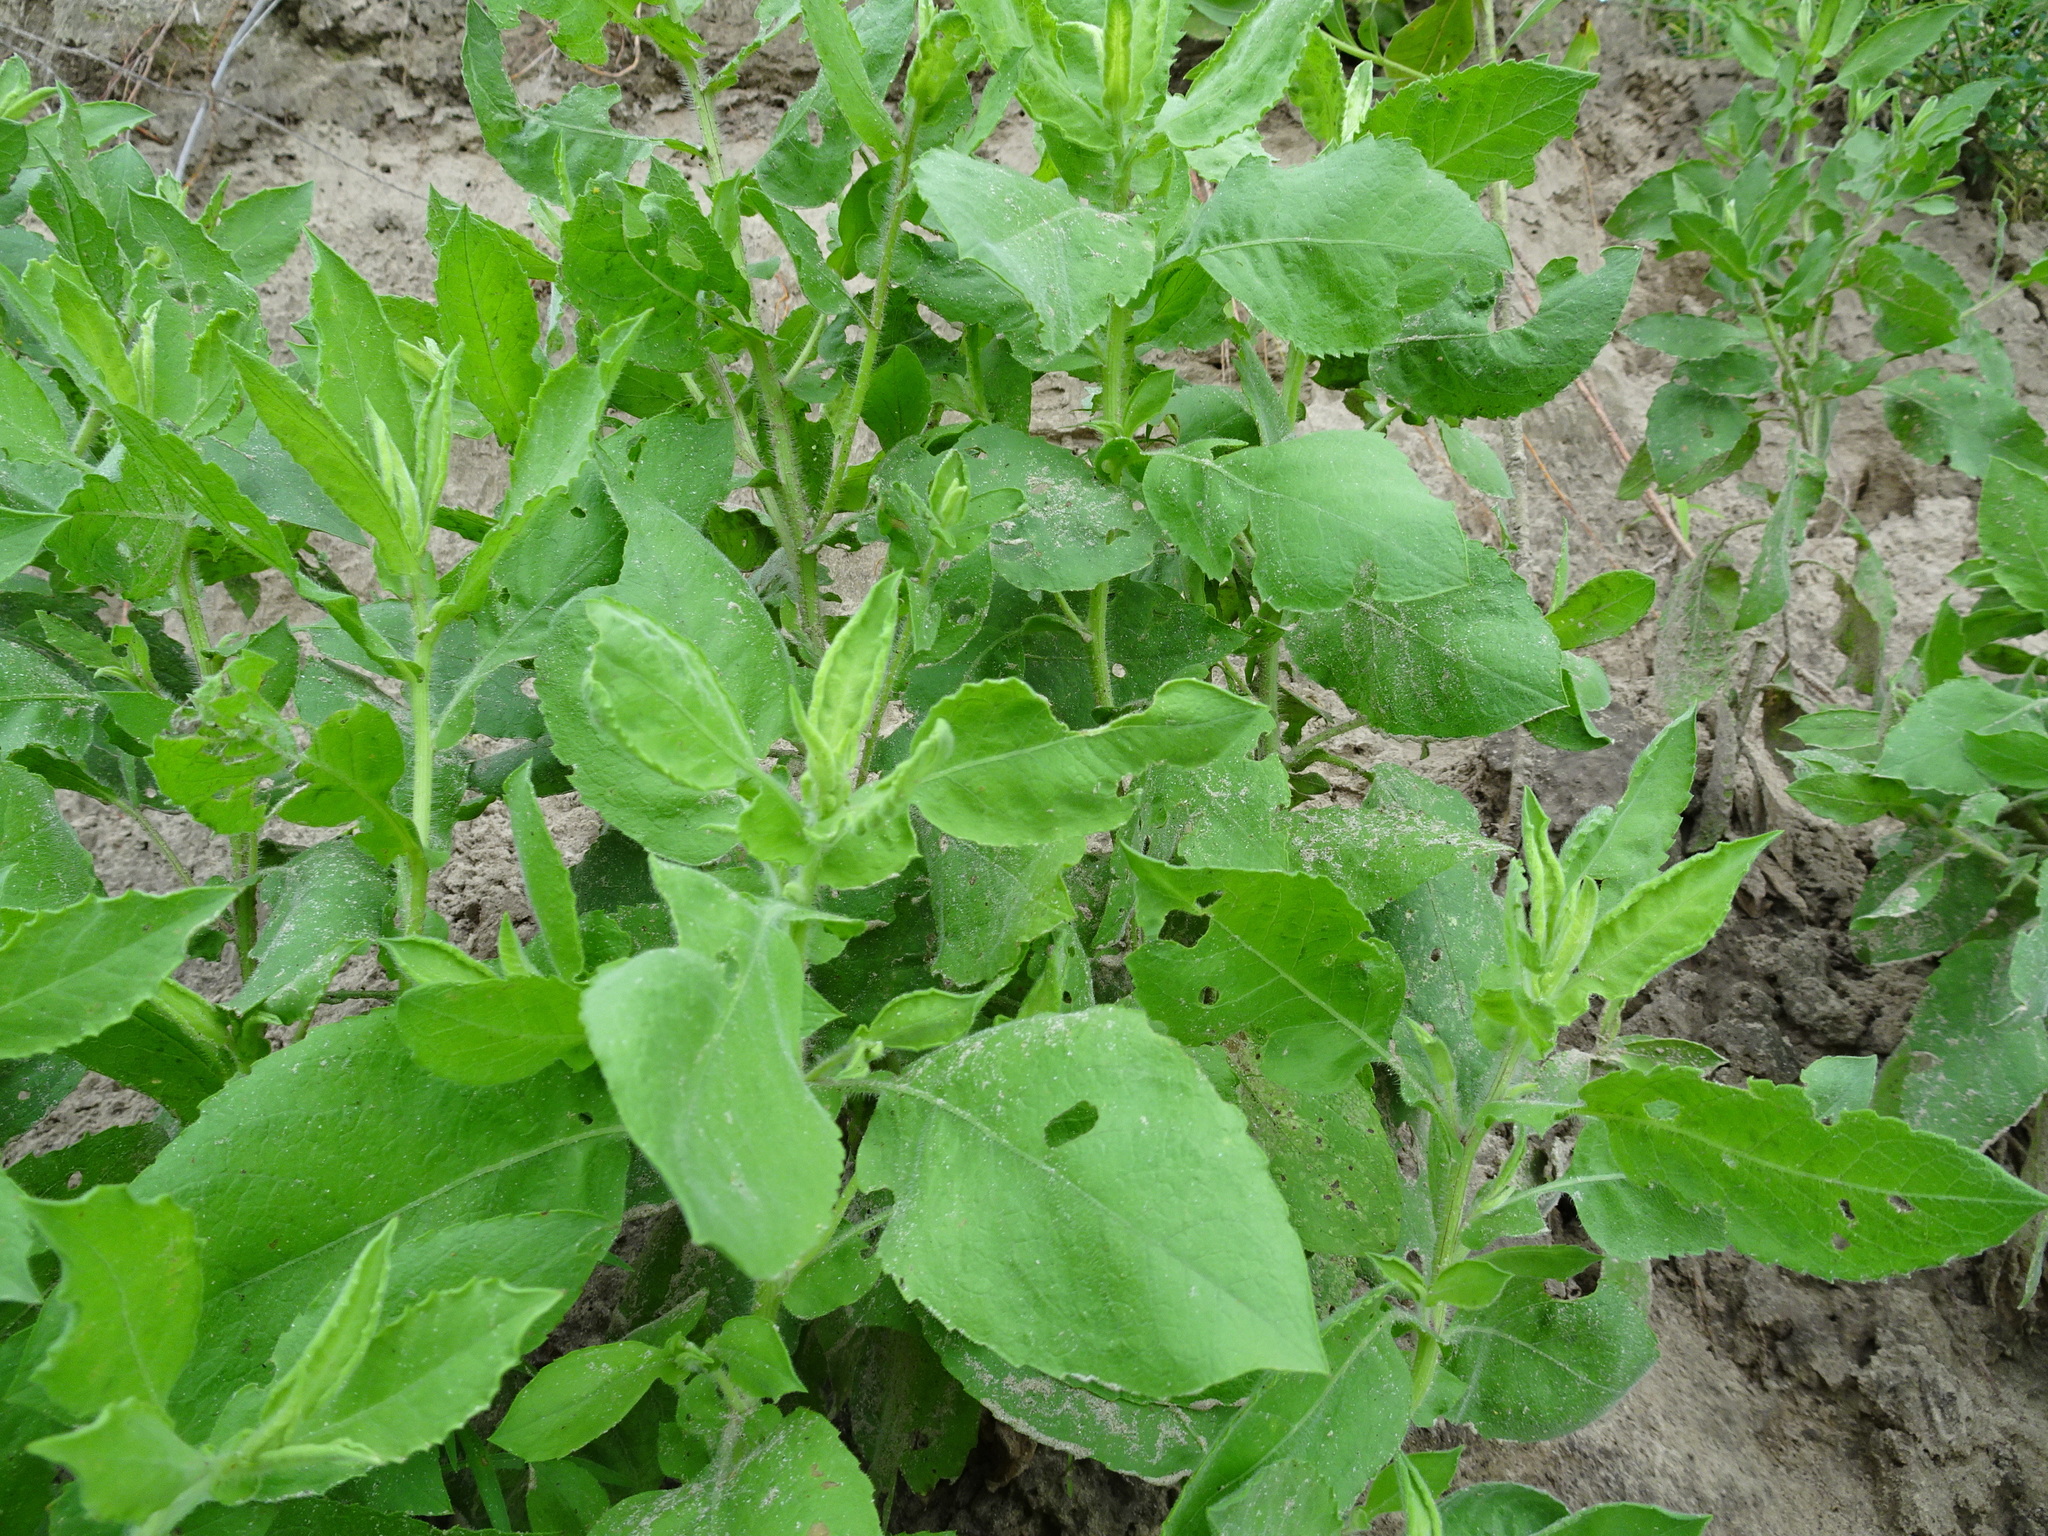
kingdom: Plantae
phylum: Tracheophyta
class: Magnoliopsida
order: Asterales
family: Asteraceae
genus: Heterotheca
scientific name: Heterotheca subaxillaris
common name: Camphorweed
